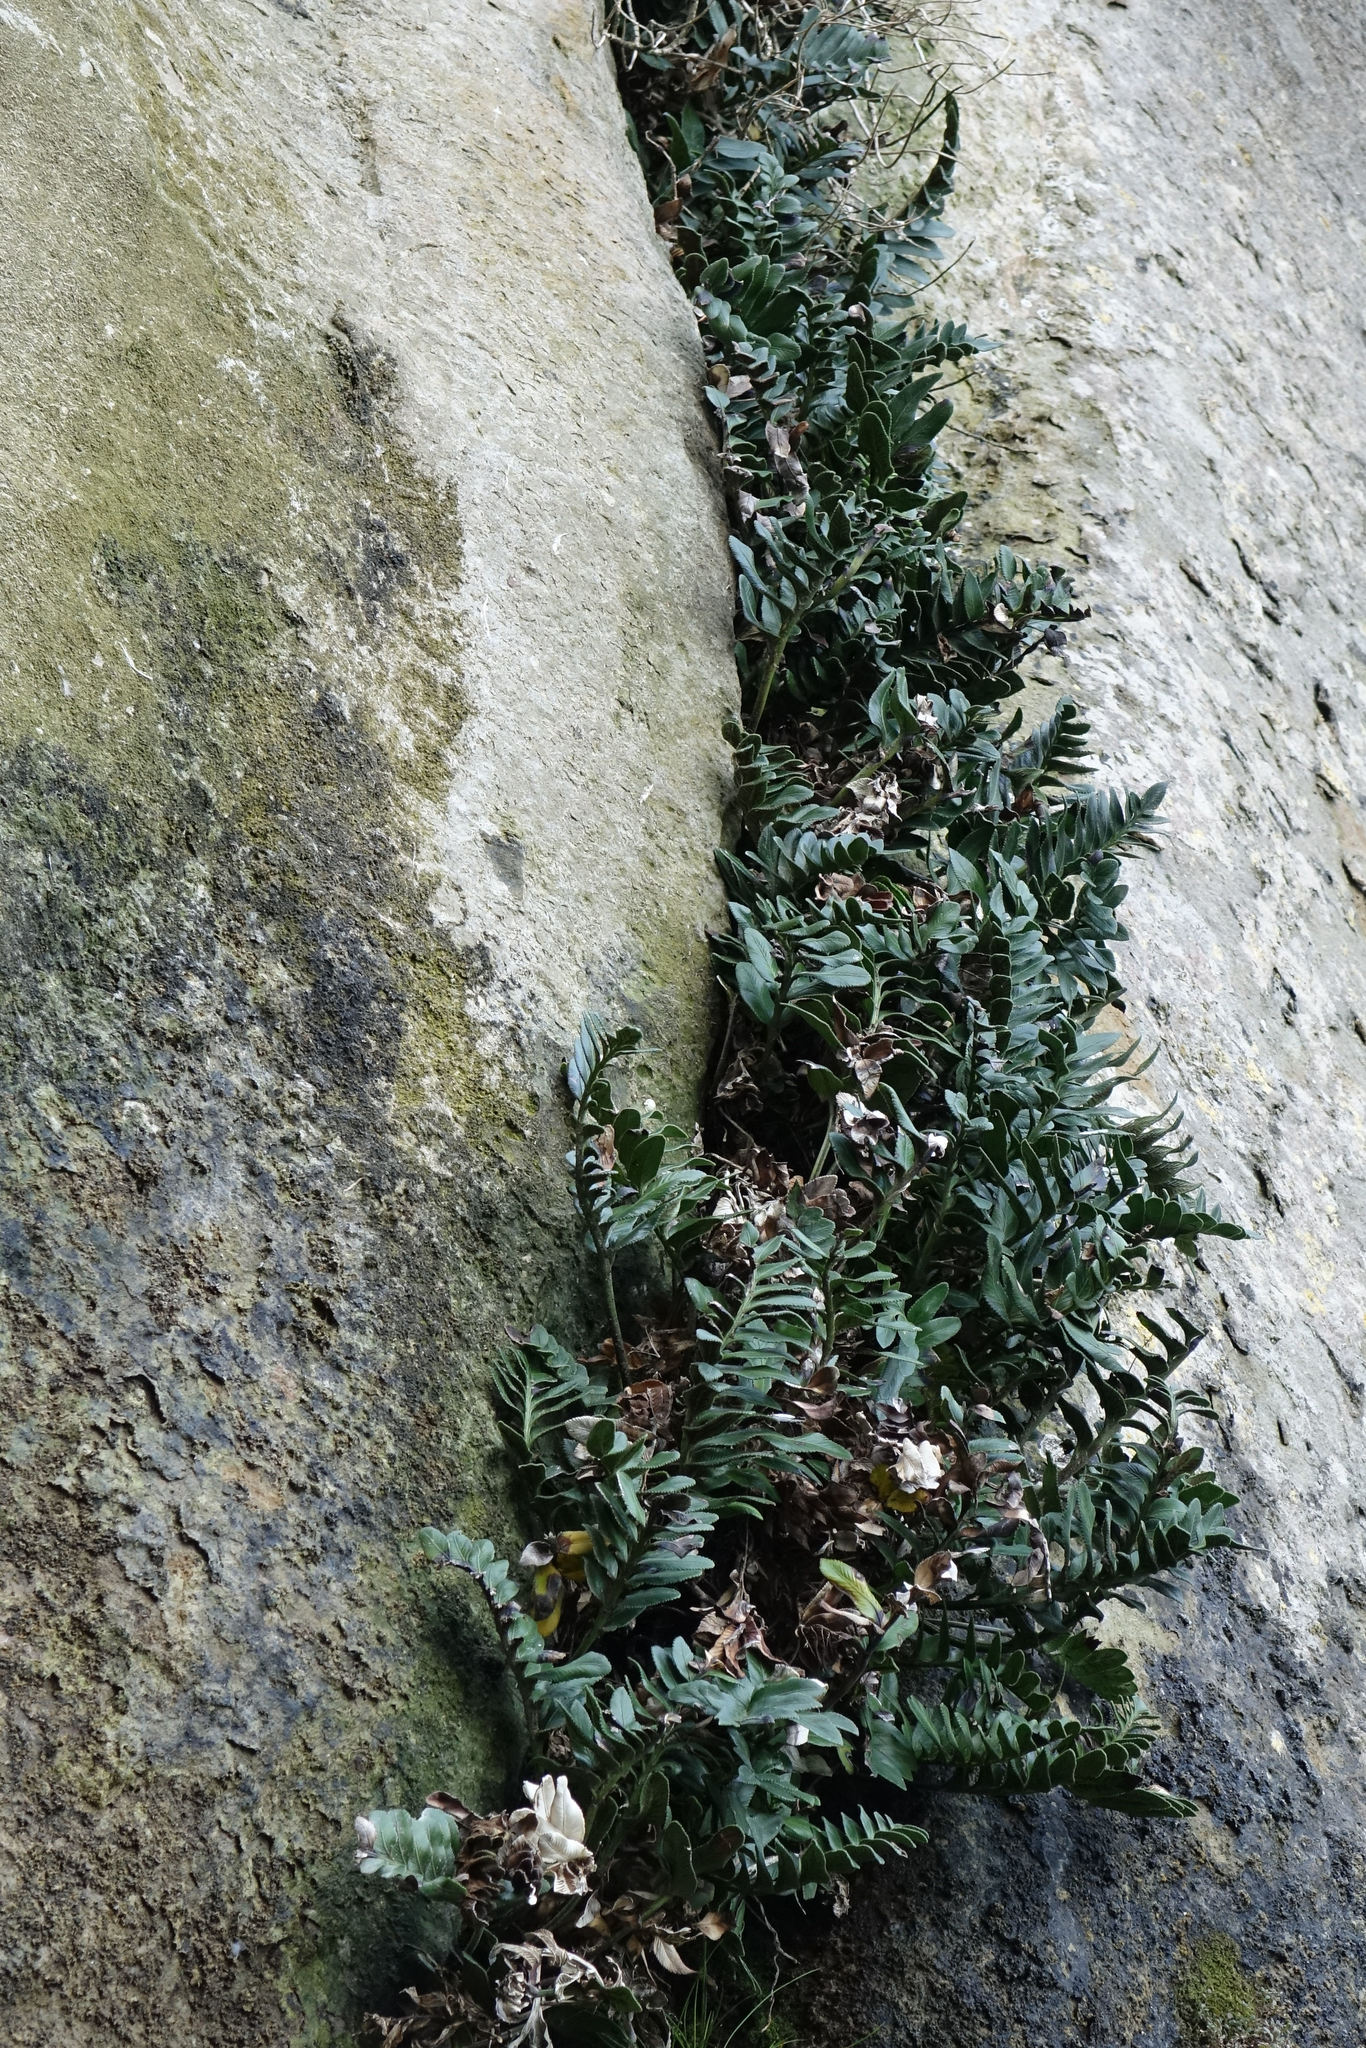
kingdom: Plantae
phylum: Tracheophyta
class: Polypodiopsida
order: Polypodiales
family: Aspleniaceae
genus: Asplenium
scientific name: Asplenium obtusatum
